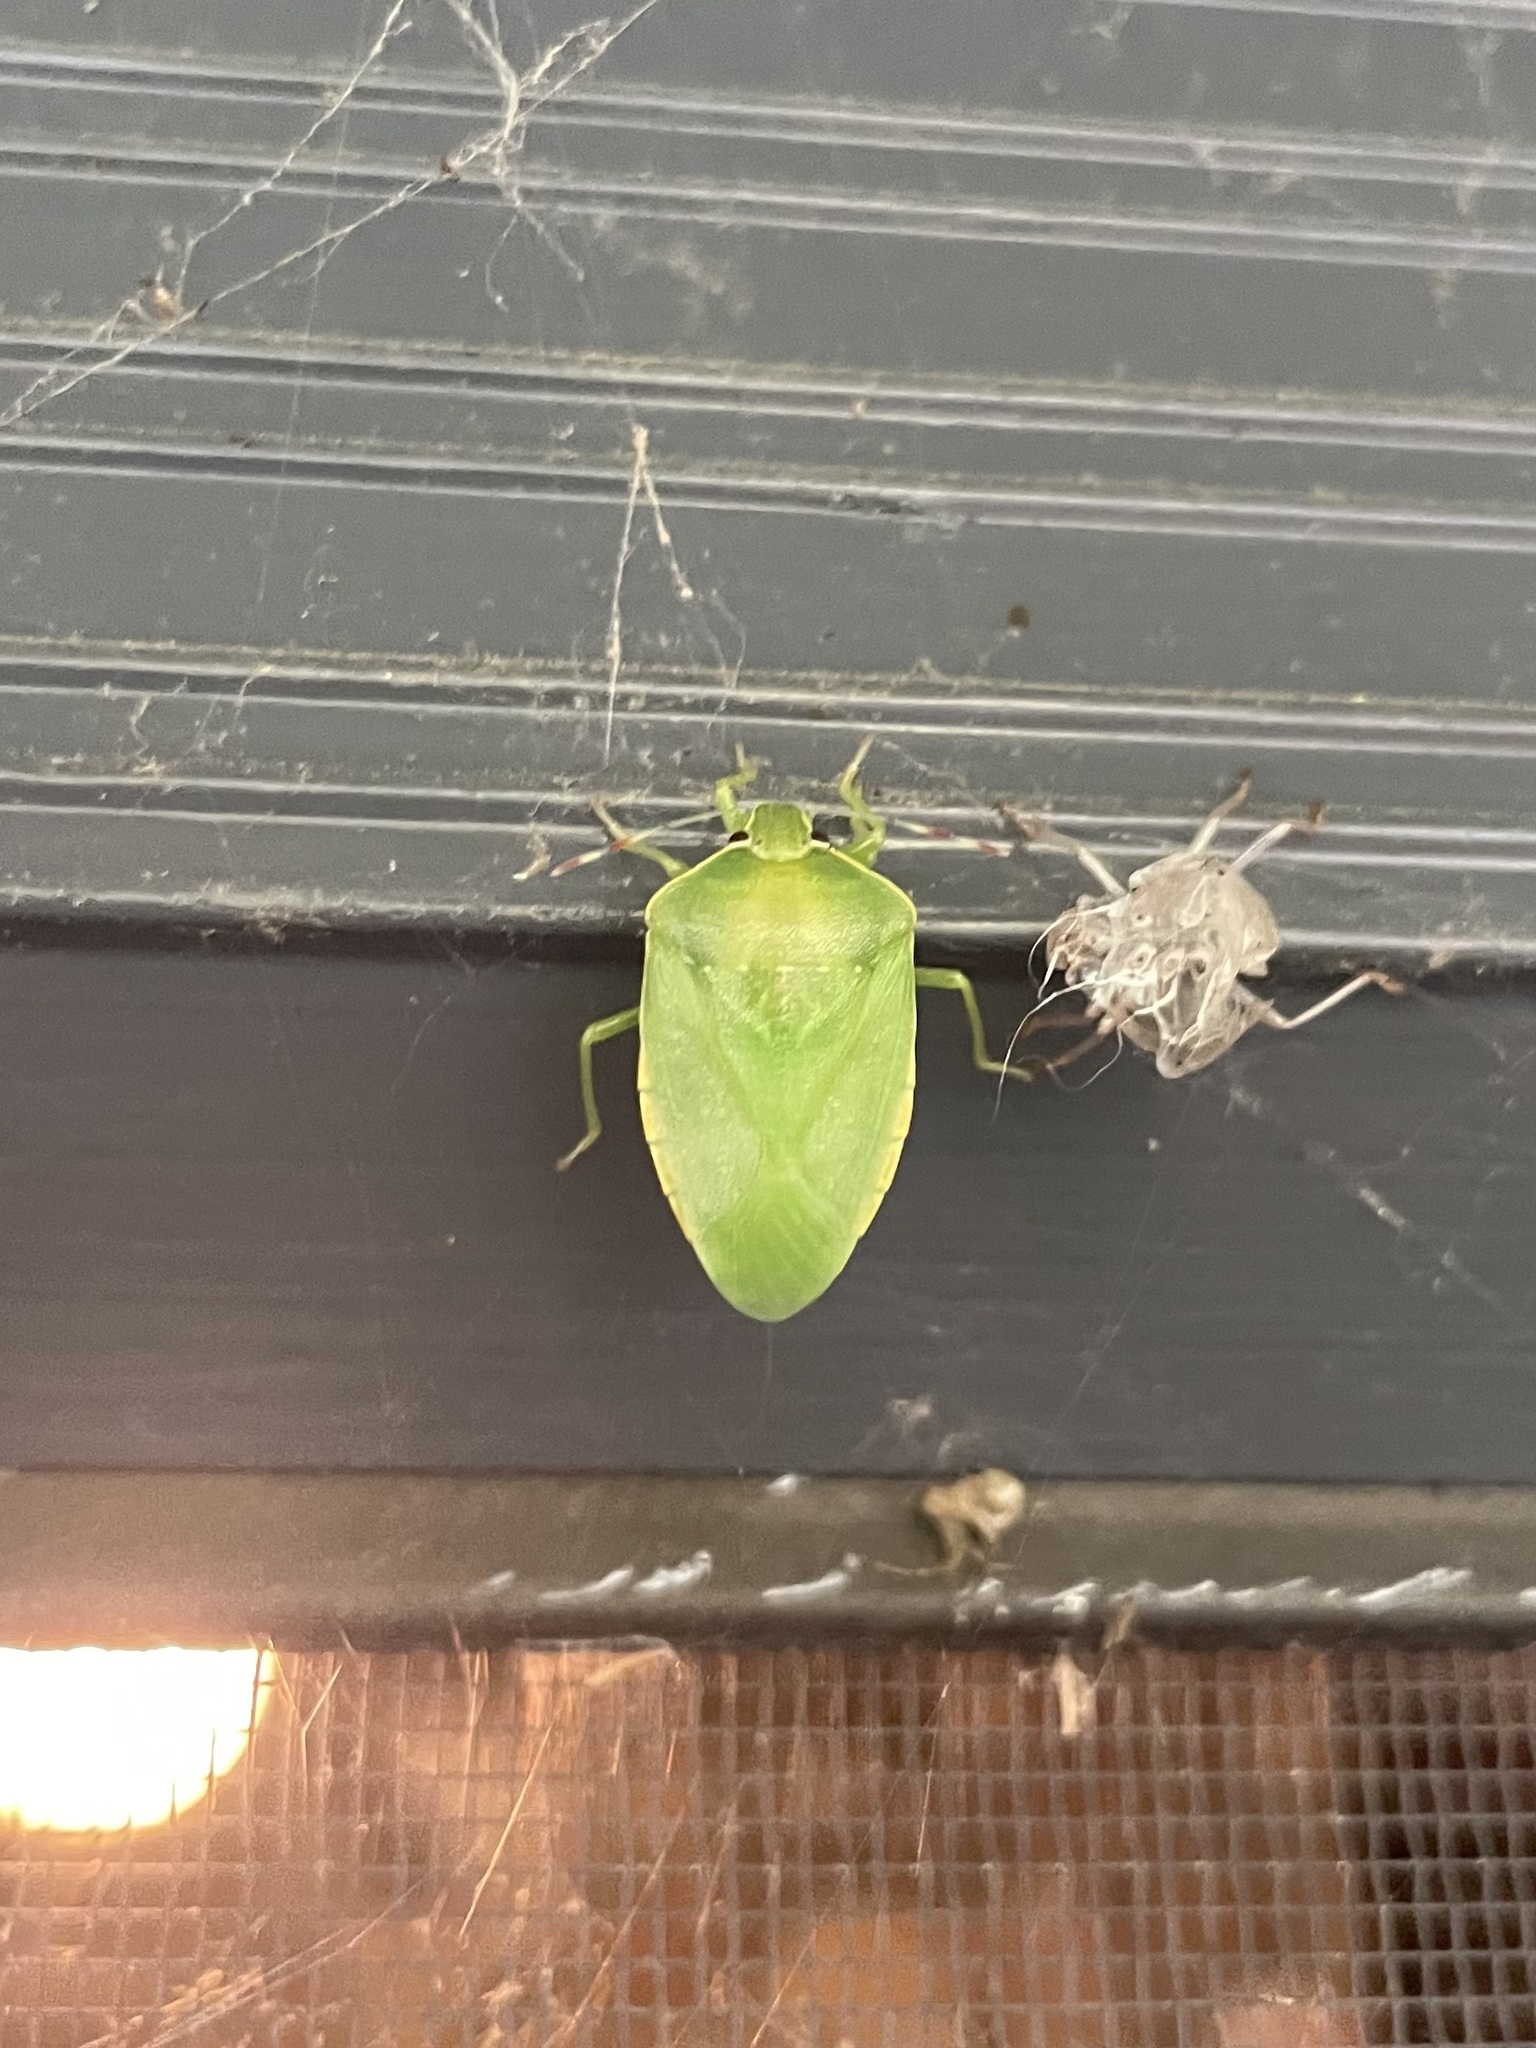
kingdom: Animalia
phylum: Arthropoda
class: Insecta
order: Hemiptera
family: Pentatomidae
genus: Chinavia
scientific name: Chinavia hilaris
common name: Green stink bug
